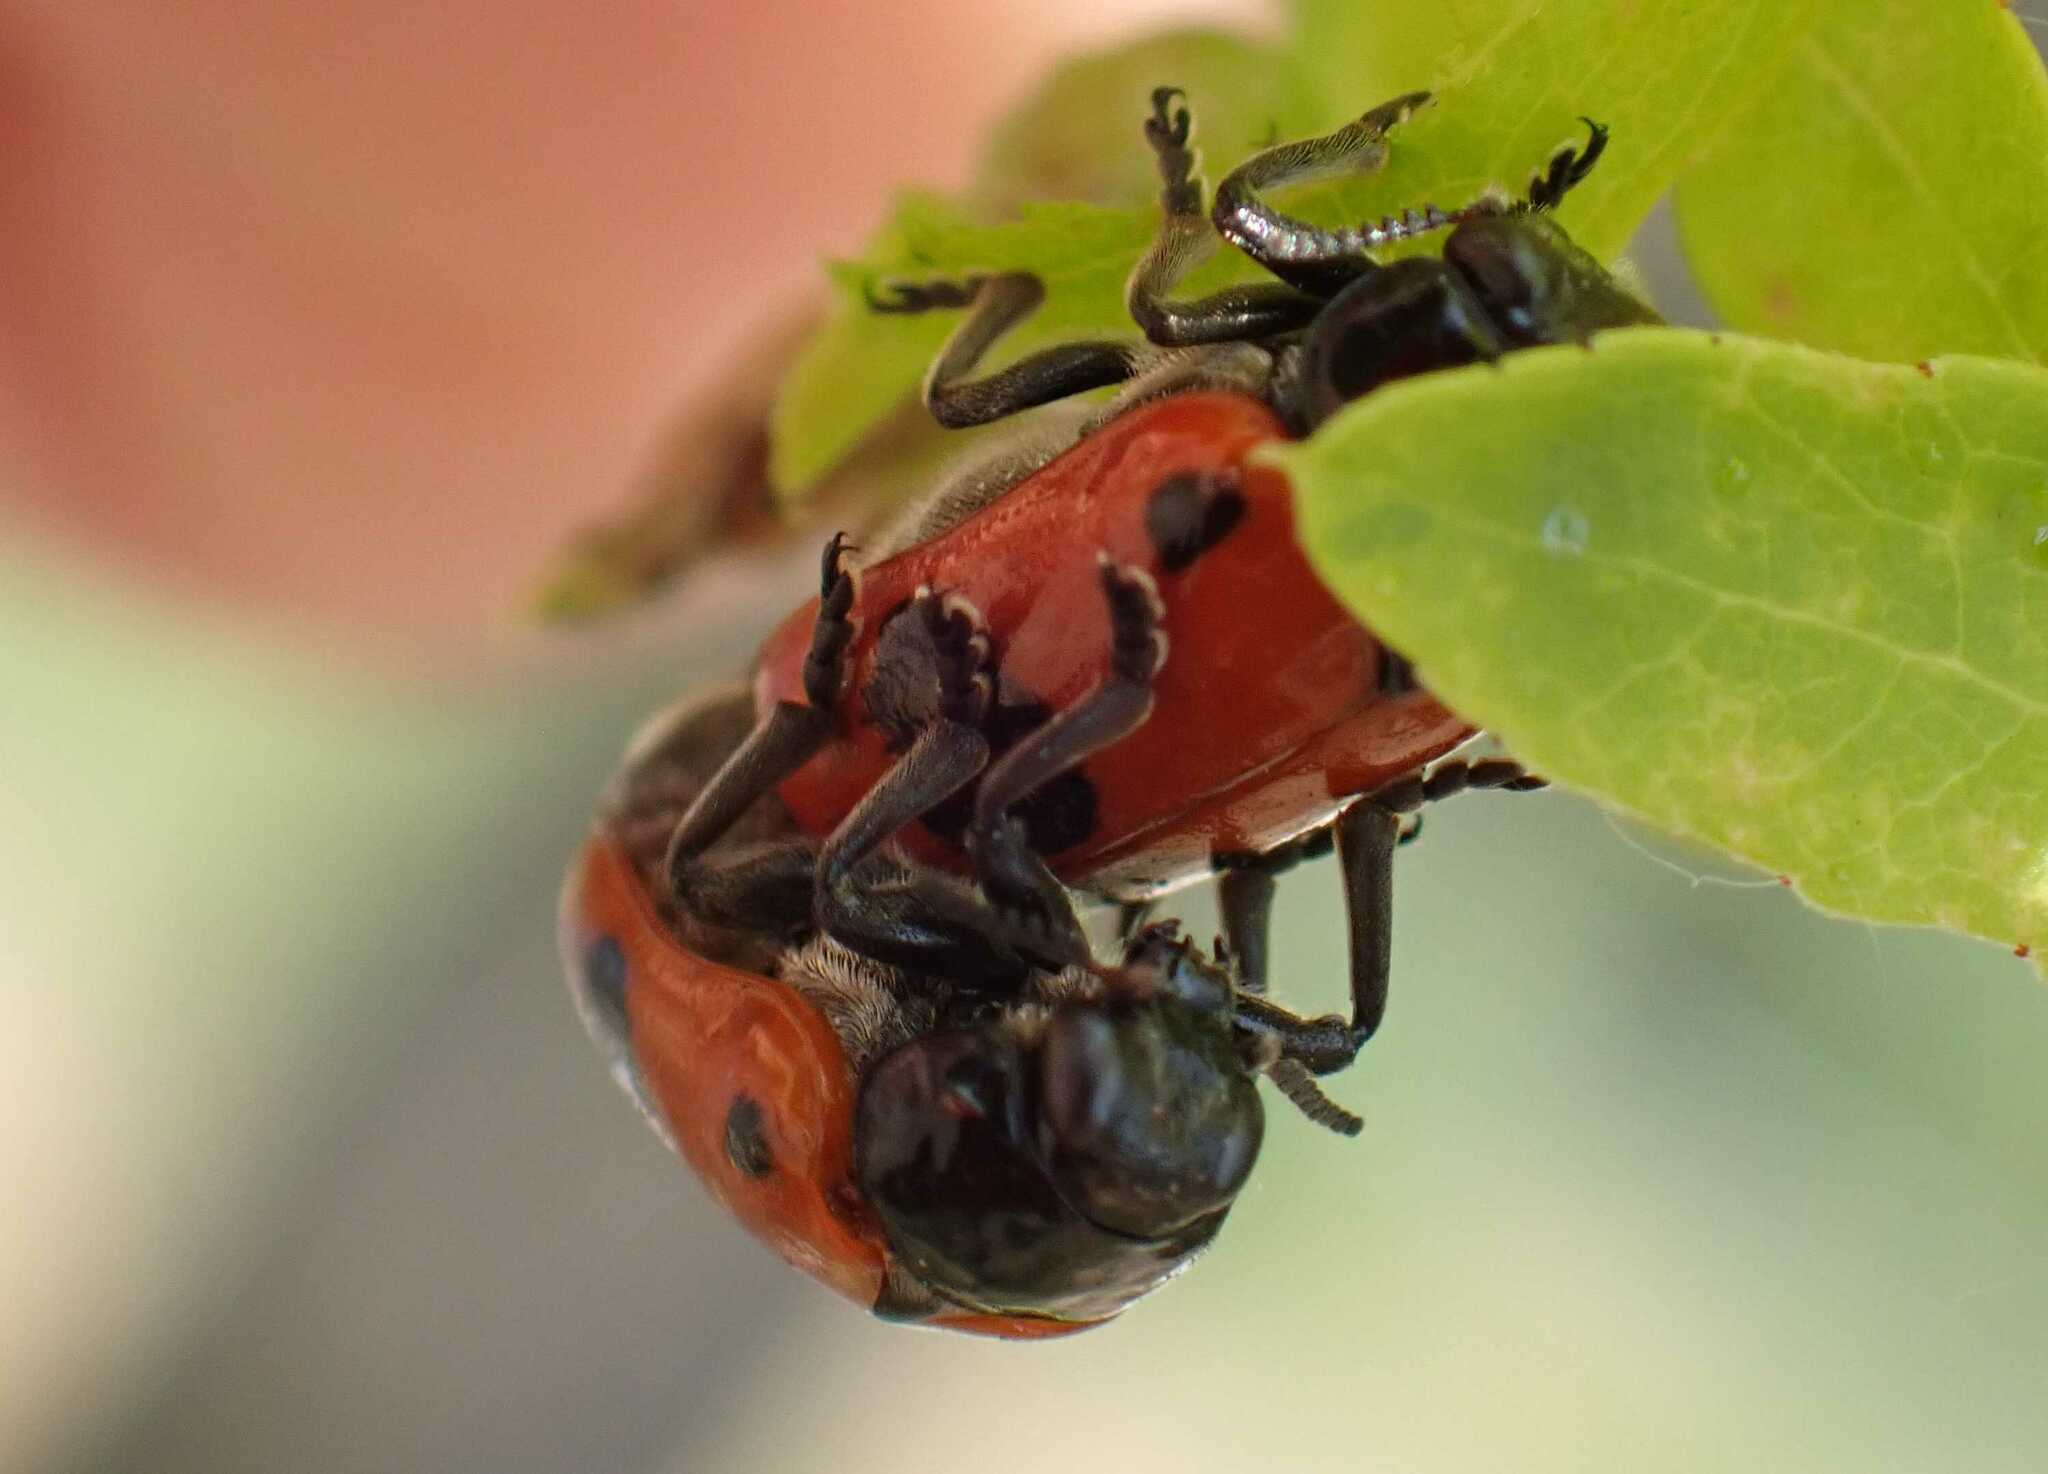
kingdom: Animalia
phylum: Arthropoda
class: Insecta
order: Coleoptera
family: Chrysomelidae
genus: Clytra
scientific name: Clytra laeviuscula
